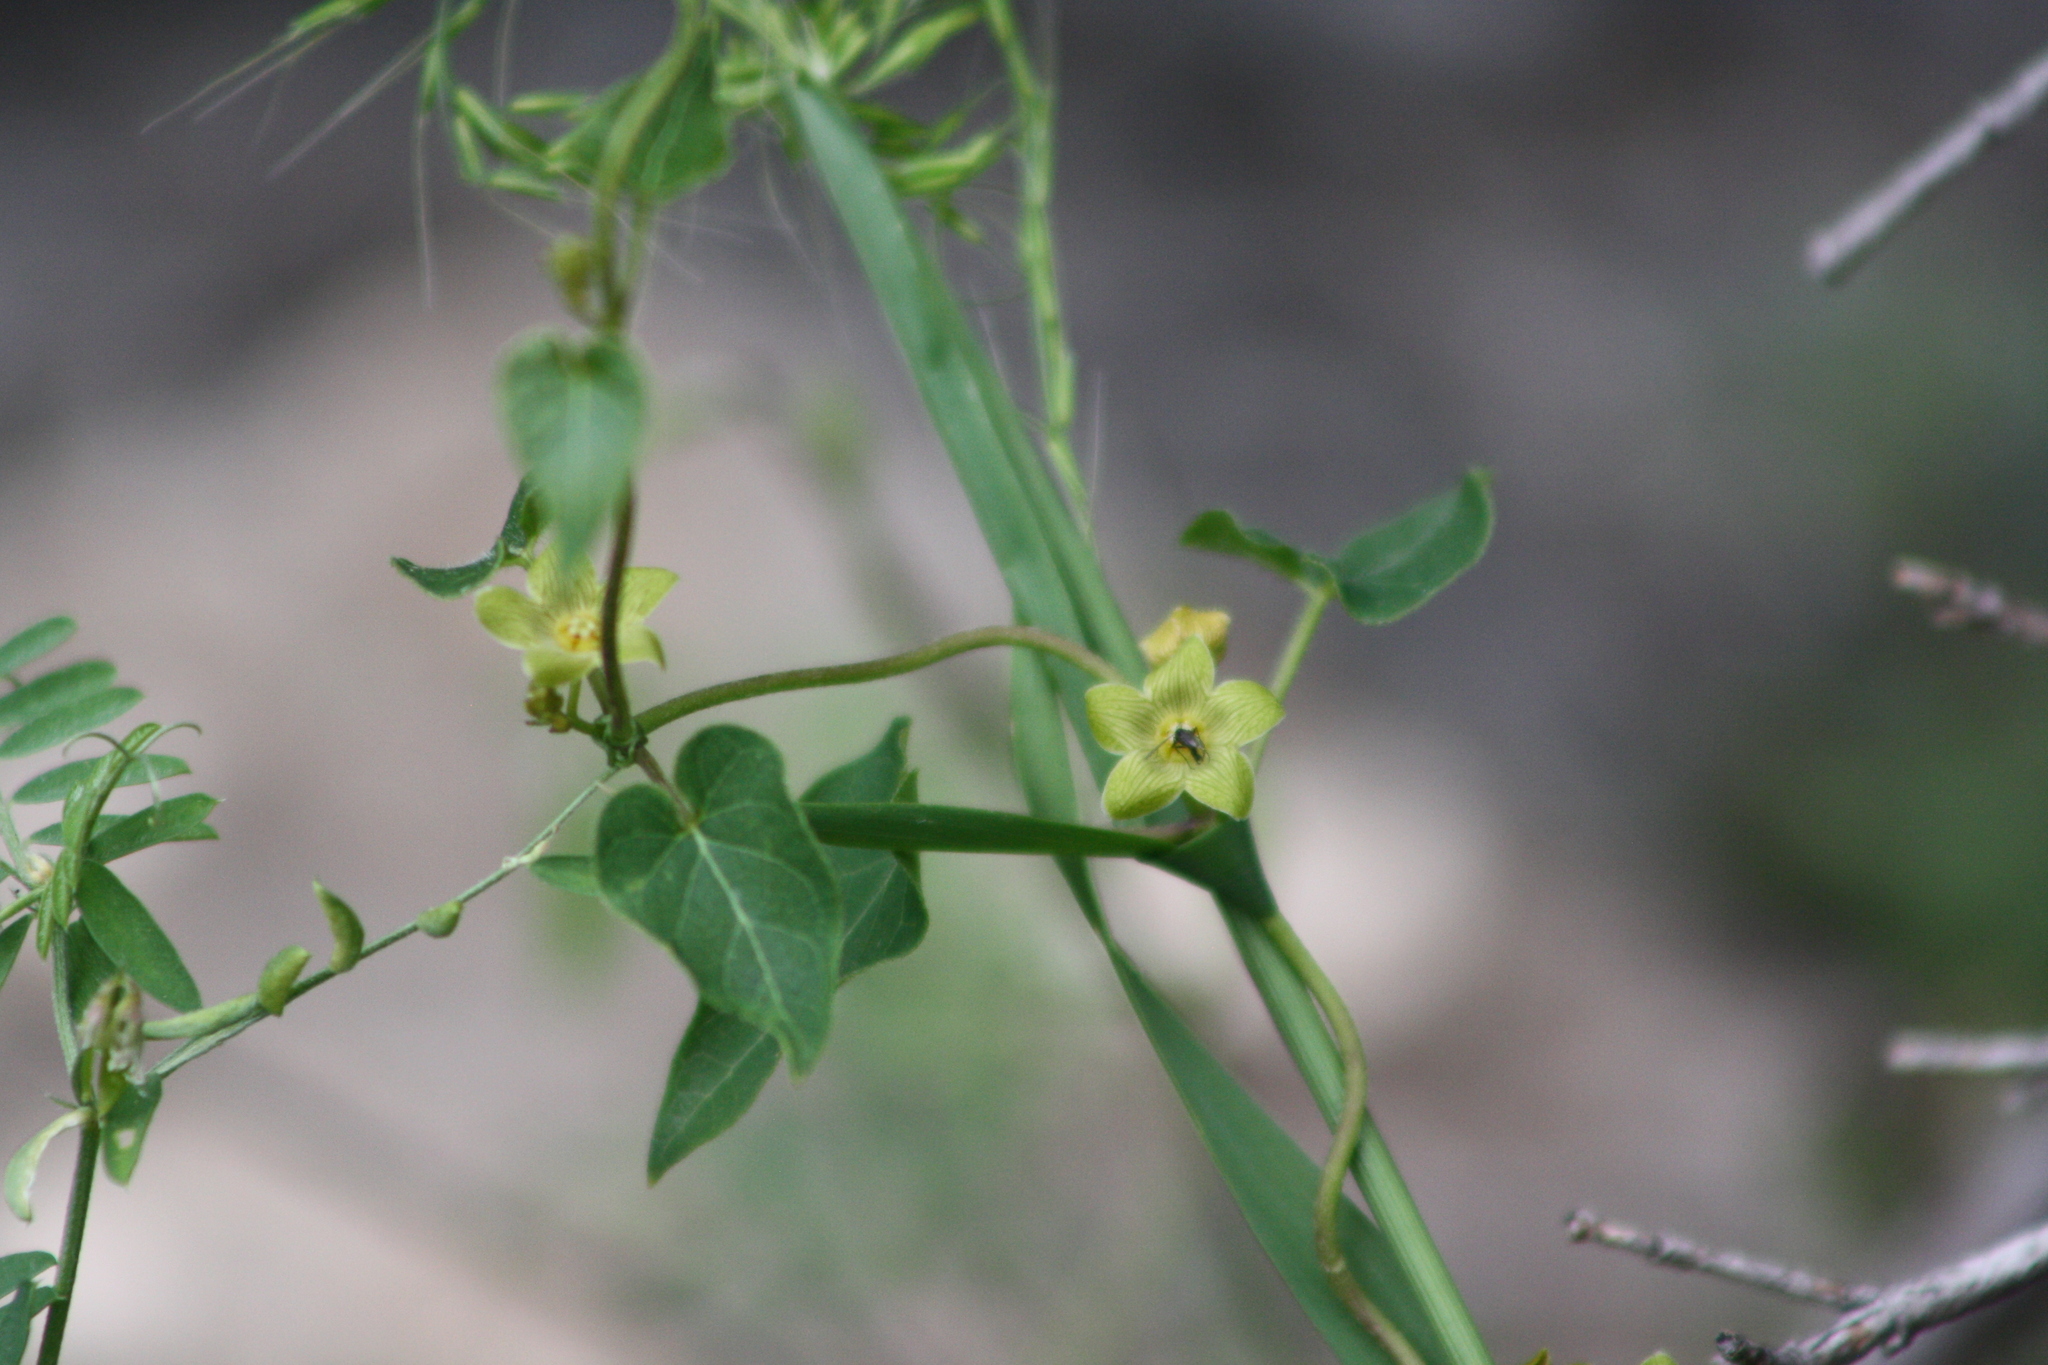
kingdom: Plantae
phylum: Tracheophyta
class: Magnoliopsida
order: Gentianales
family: Apocynaceae
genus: Matelea
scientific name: Matelea edwardsensis
